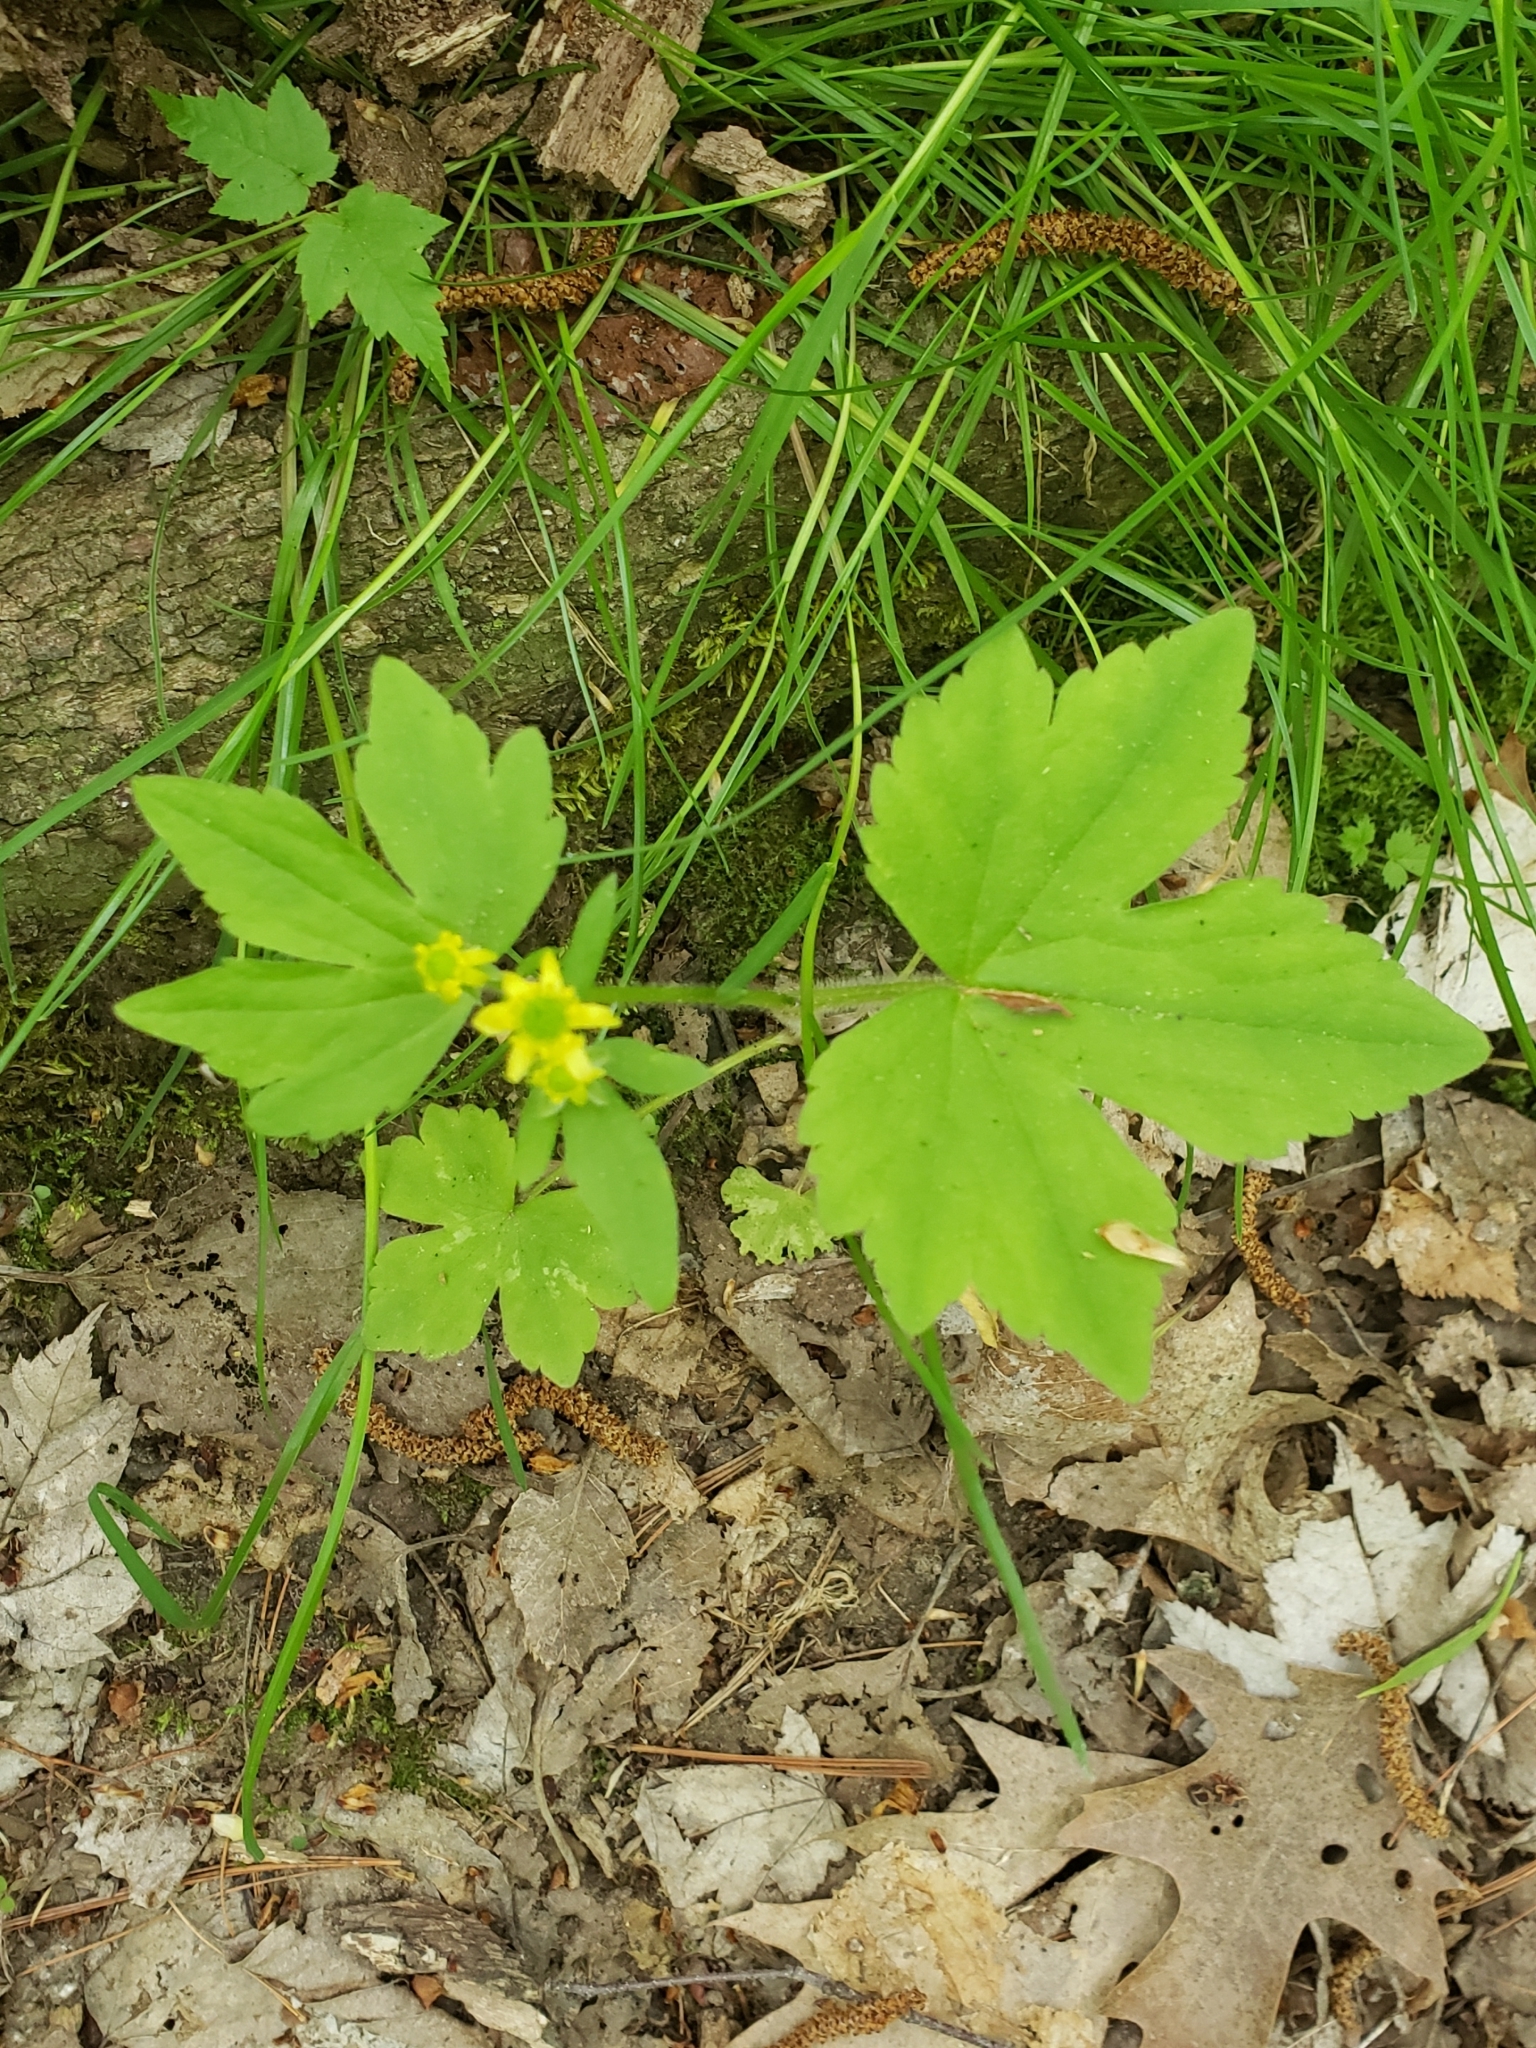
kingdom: Plantae
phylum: Tracheophyta
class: Magnoliopsida
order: Ranunculales
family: Ranunculaceae
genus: Ranunculus
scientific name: Ranunculus recurvatus
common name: Blisterwort
